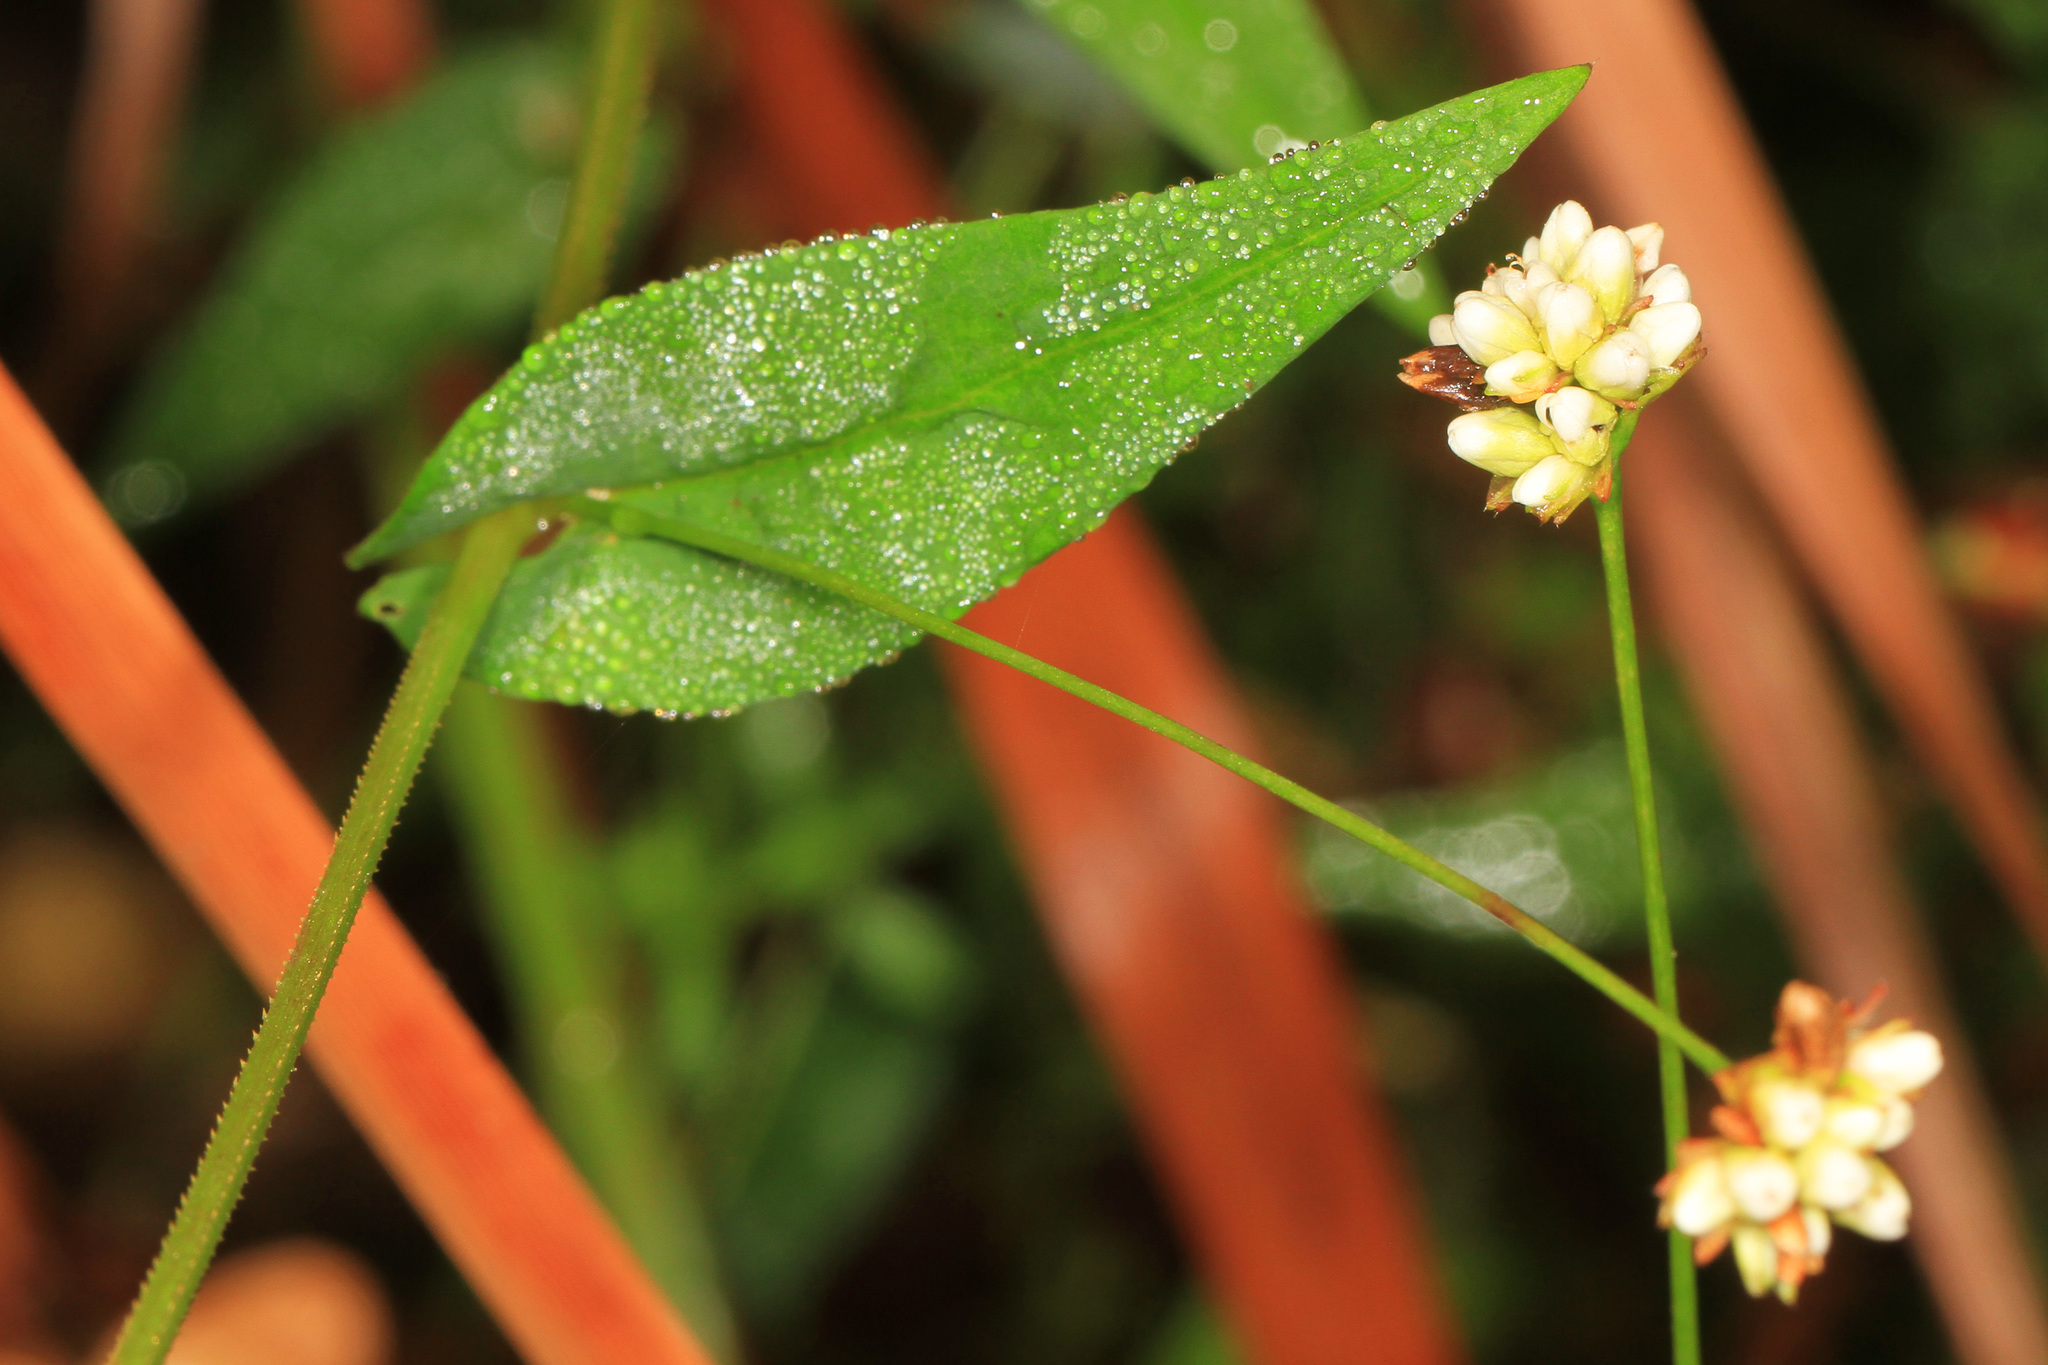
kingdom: Plantae
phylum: Tracheophyta
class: Magnoliopsida
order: Caryophyllales
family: Polygonaceae
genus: Persicaria
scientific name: Persicaria sagittata
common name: American tearthumb
